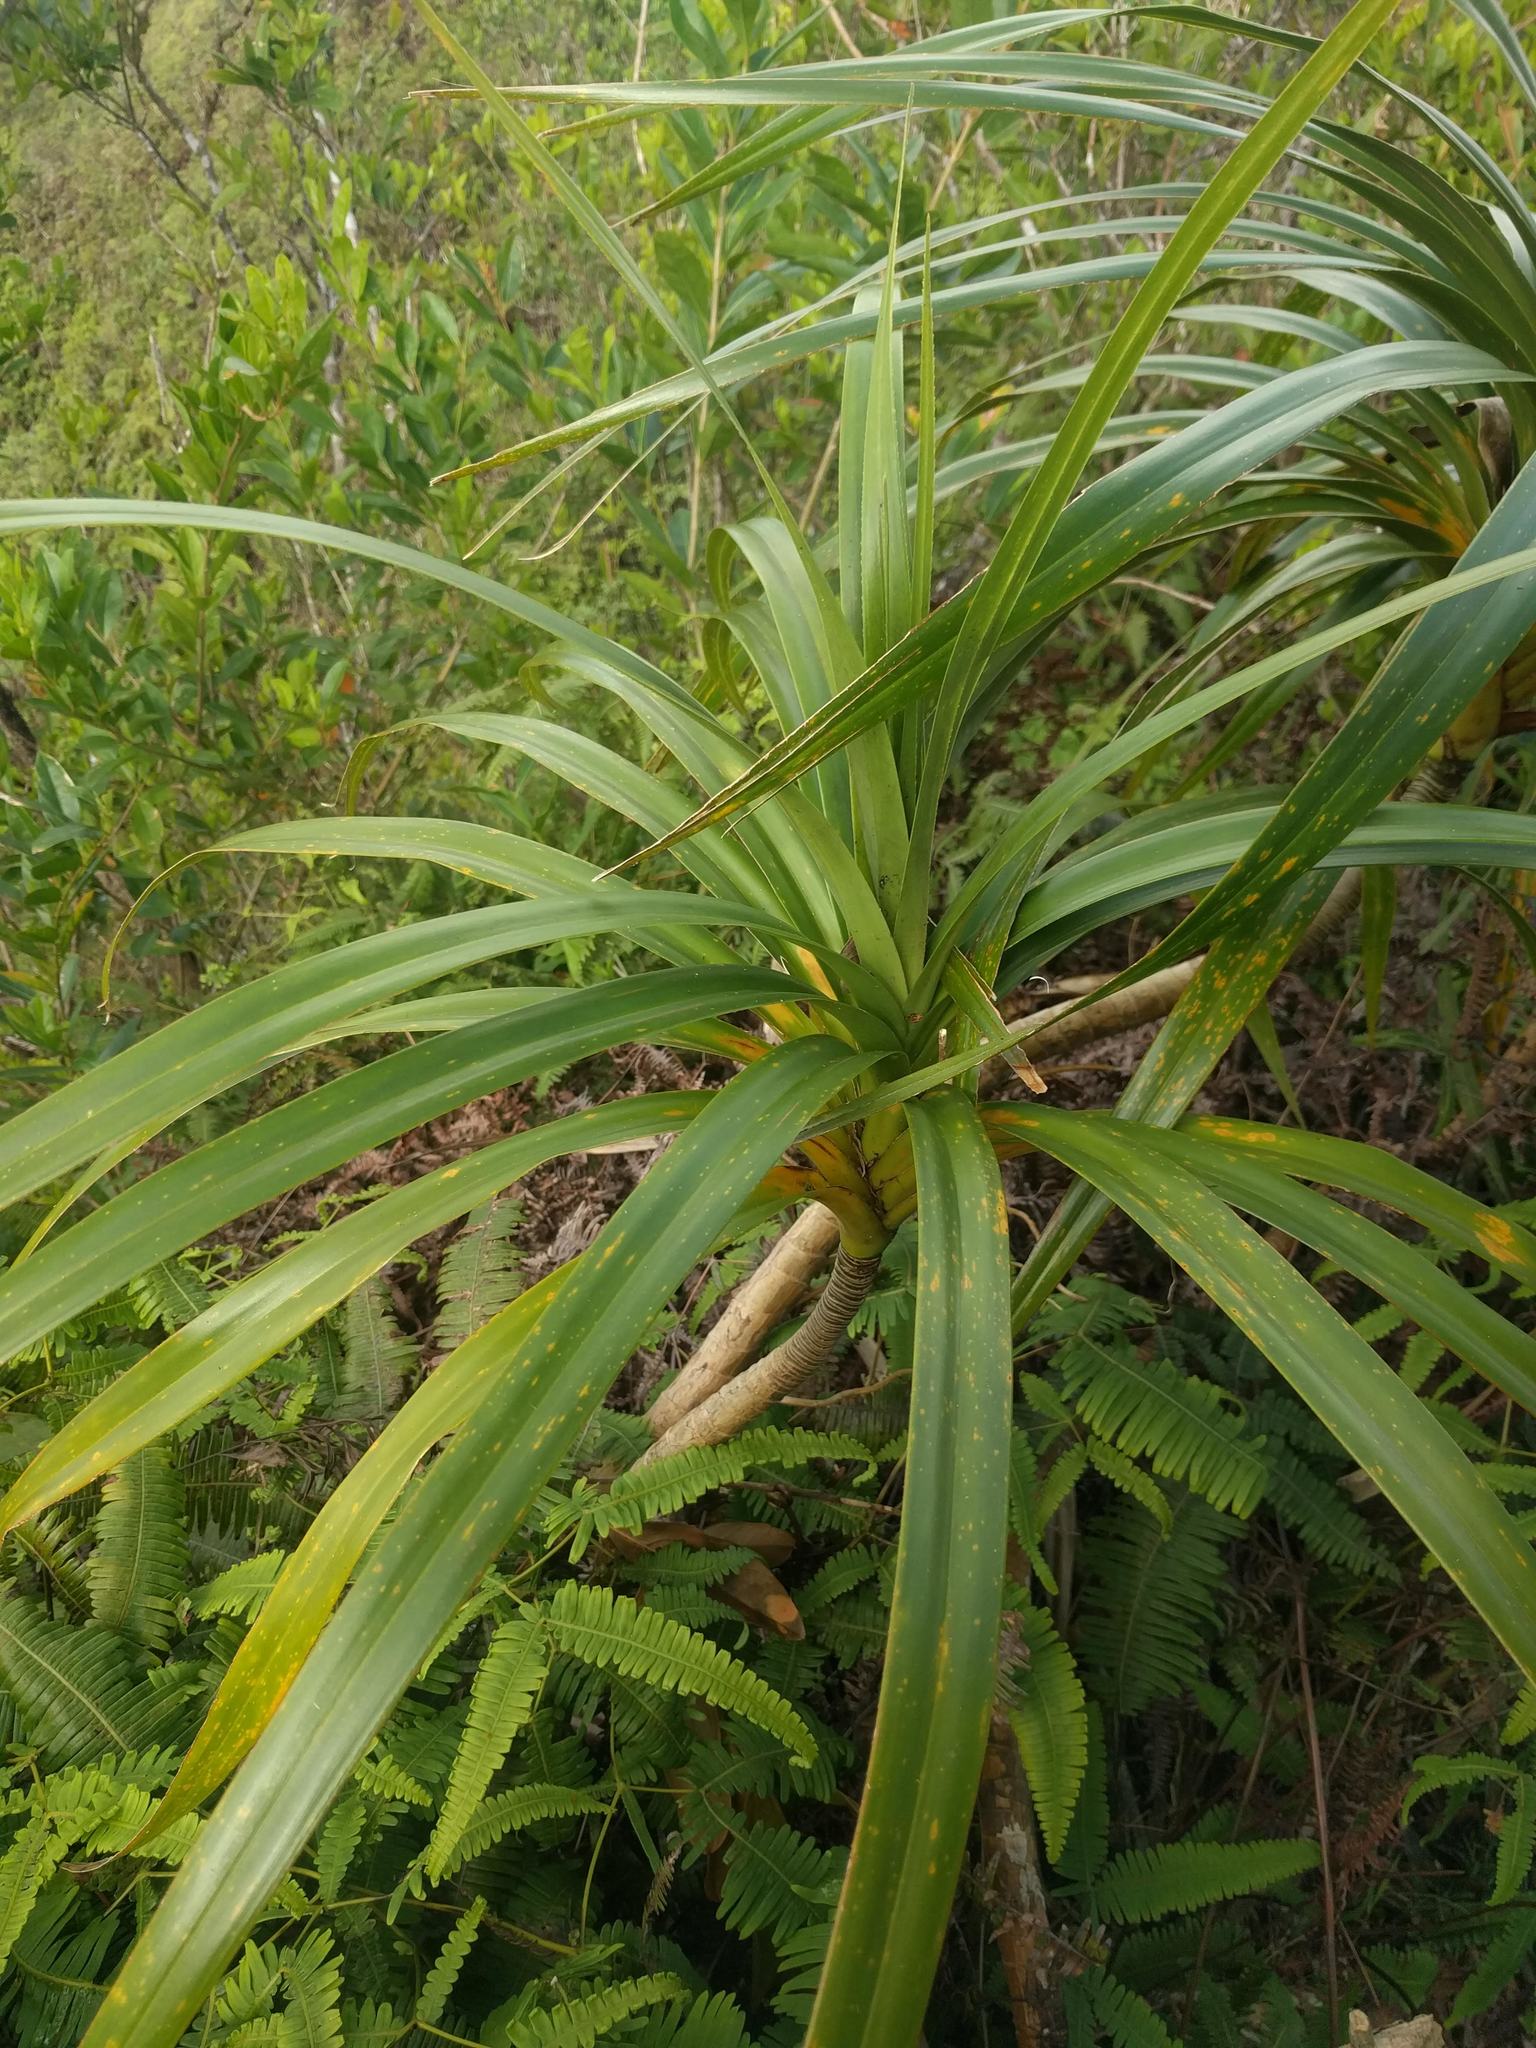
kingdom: Plantae
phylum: Tracheophyta
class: Liliopsida
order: Pandanales
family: Pandanaceae
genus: Freycinetia
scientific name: Freycinetia arborea
